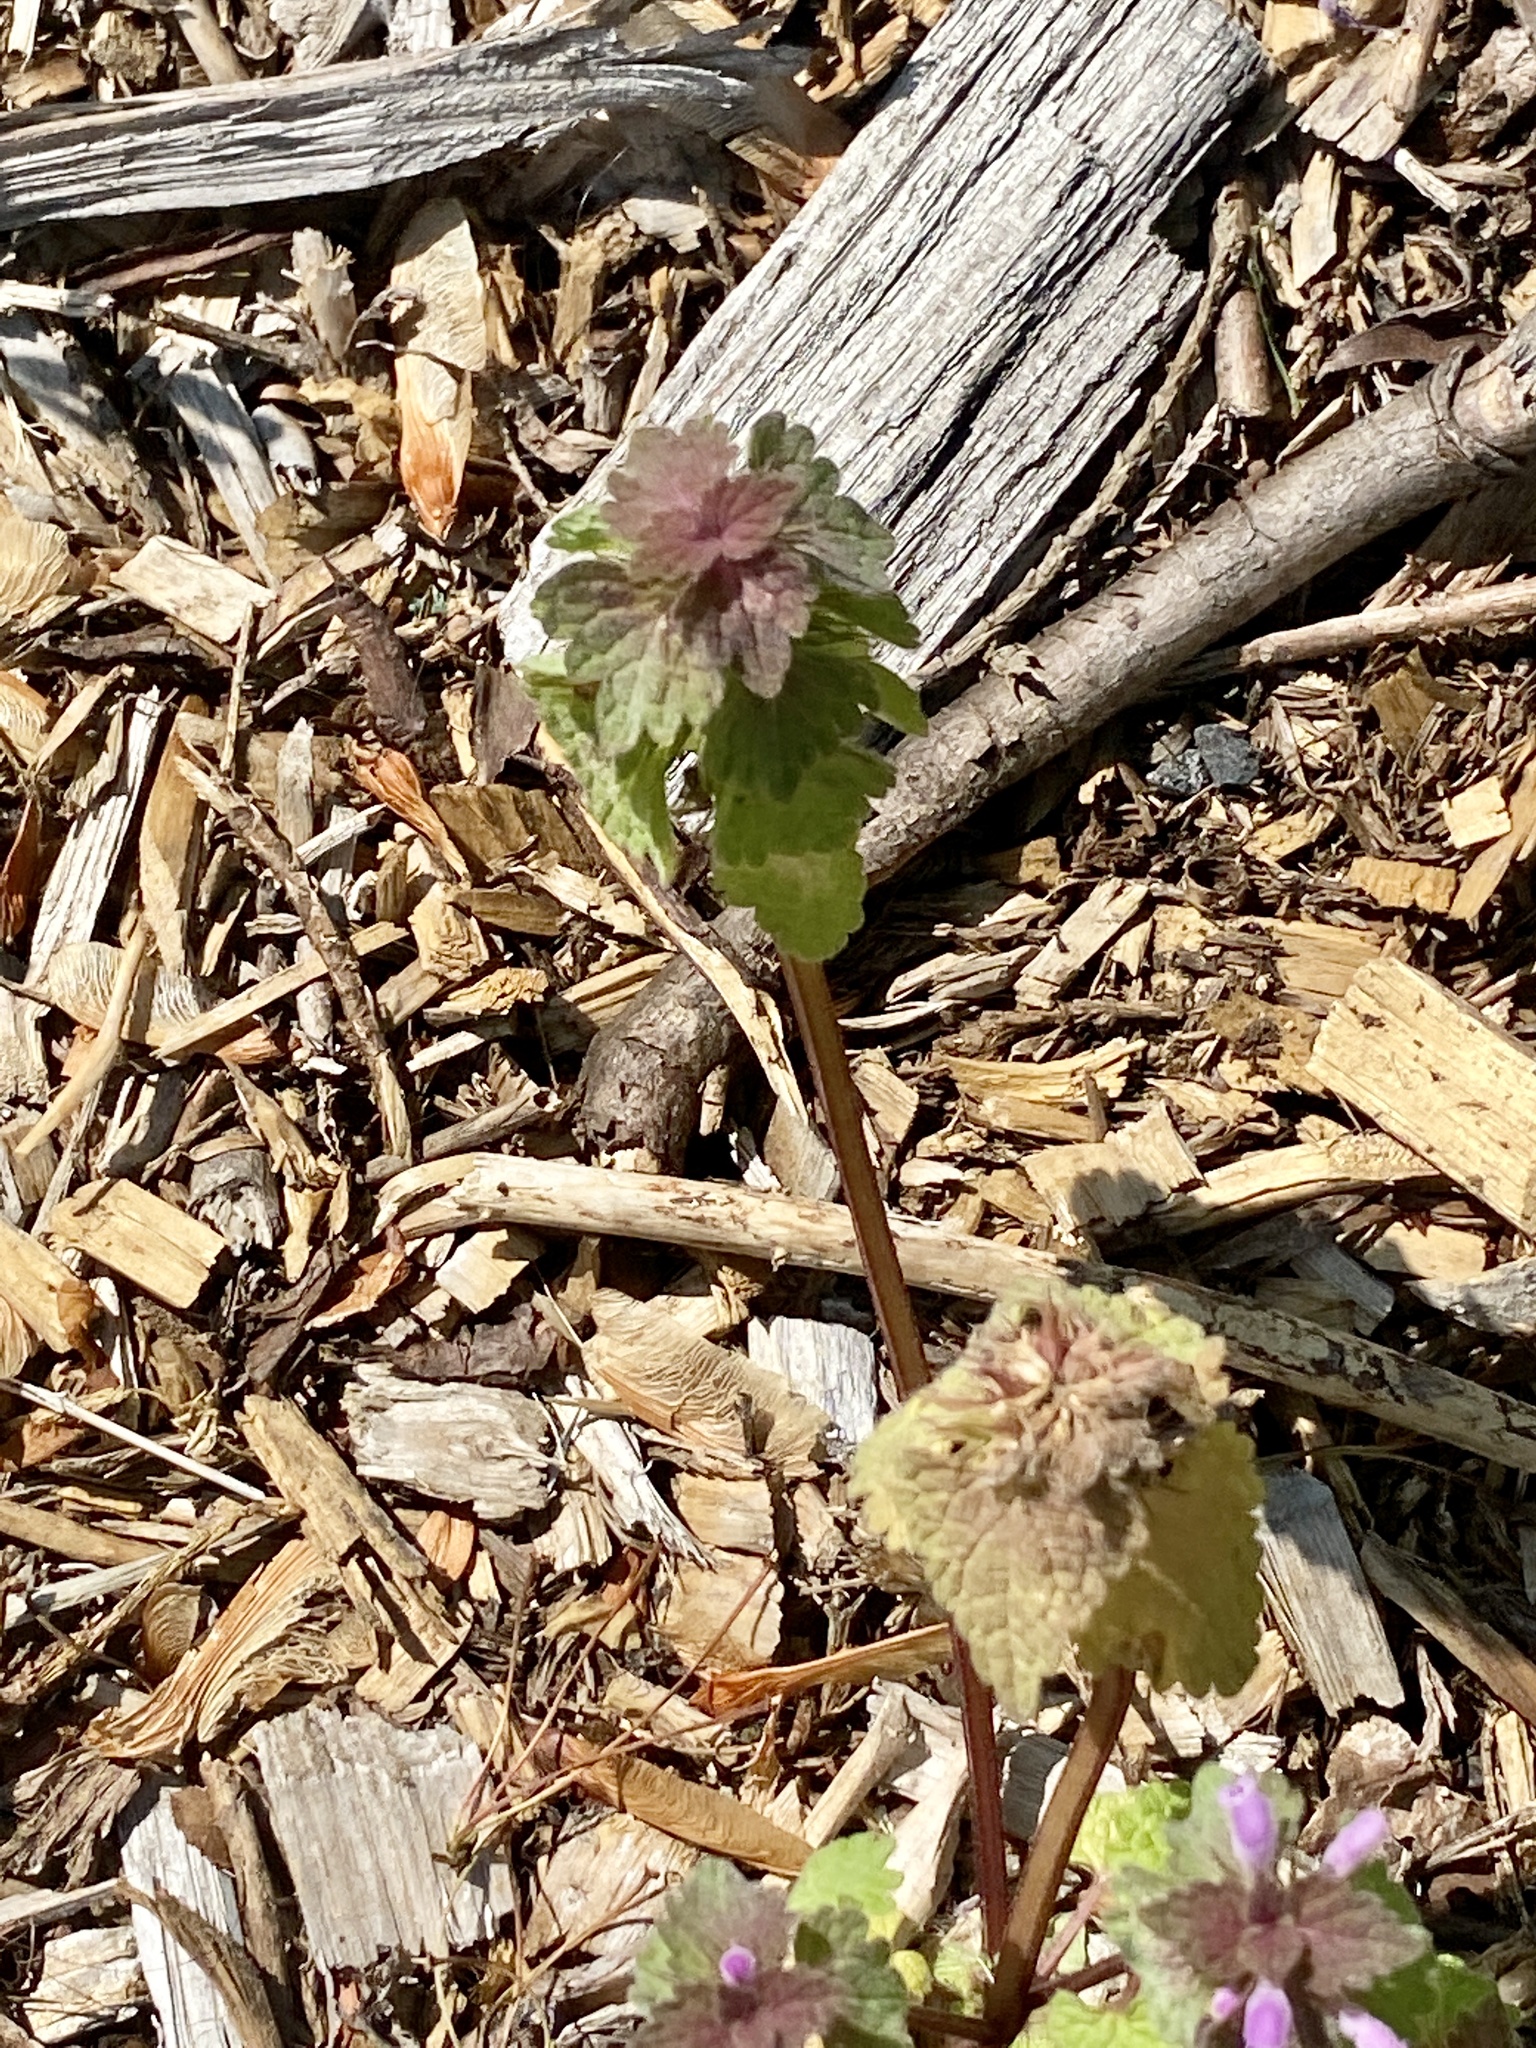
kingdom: Plantae
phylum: Tracheophyta
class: Magnoliopsida
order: Lamiales
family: Lamiaceae
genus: Lamium
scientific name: Lamium purpureum
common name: Red dead-nettle
